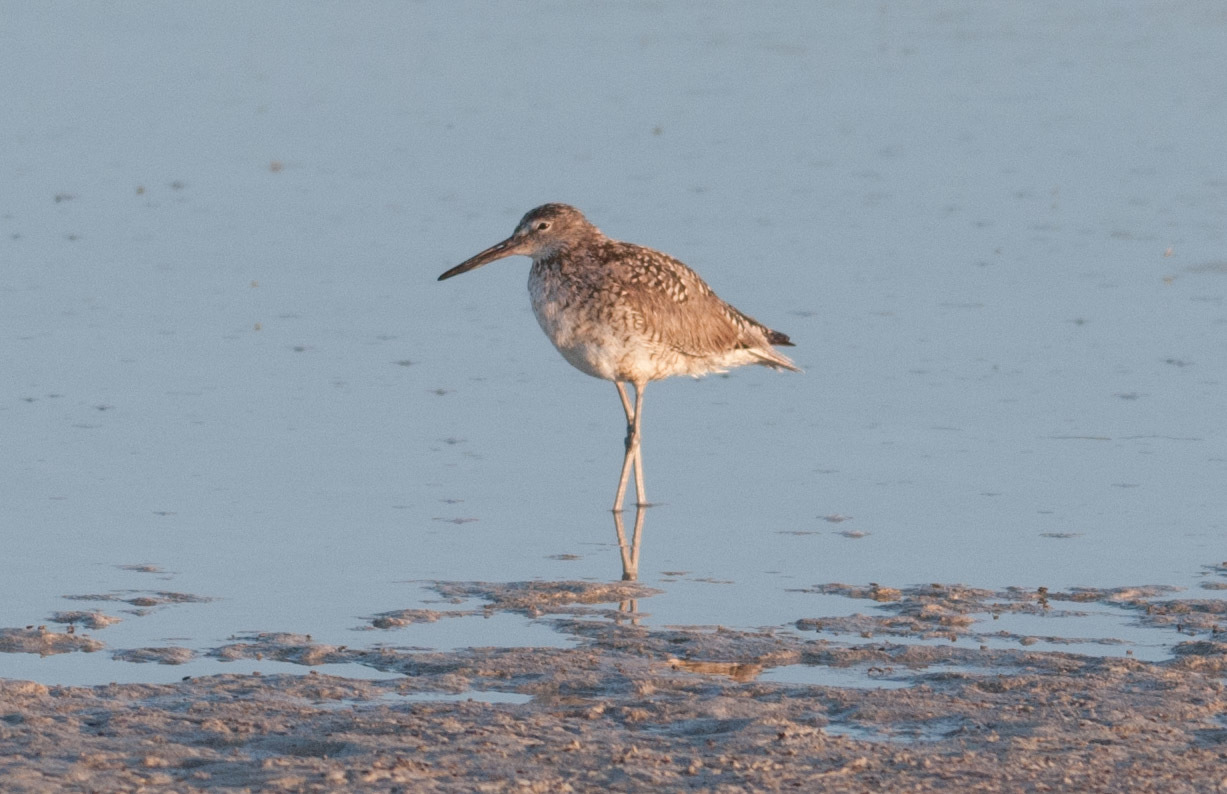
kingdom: Animalia
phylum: Chordata
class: Aves
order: Charadriiformes
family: Scolopacidae
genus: Tringa
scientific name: Tringa semipalmata
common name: Willet
